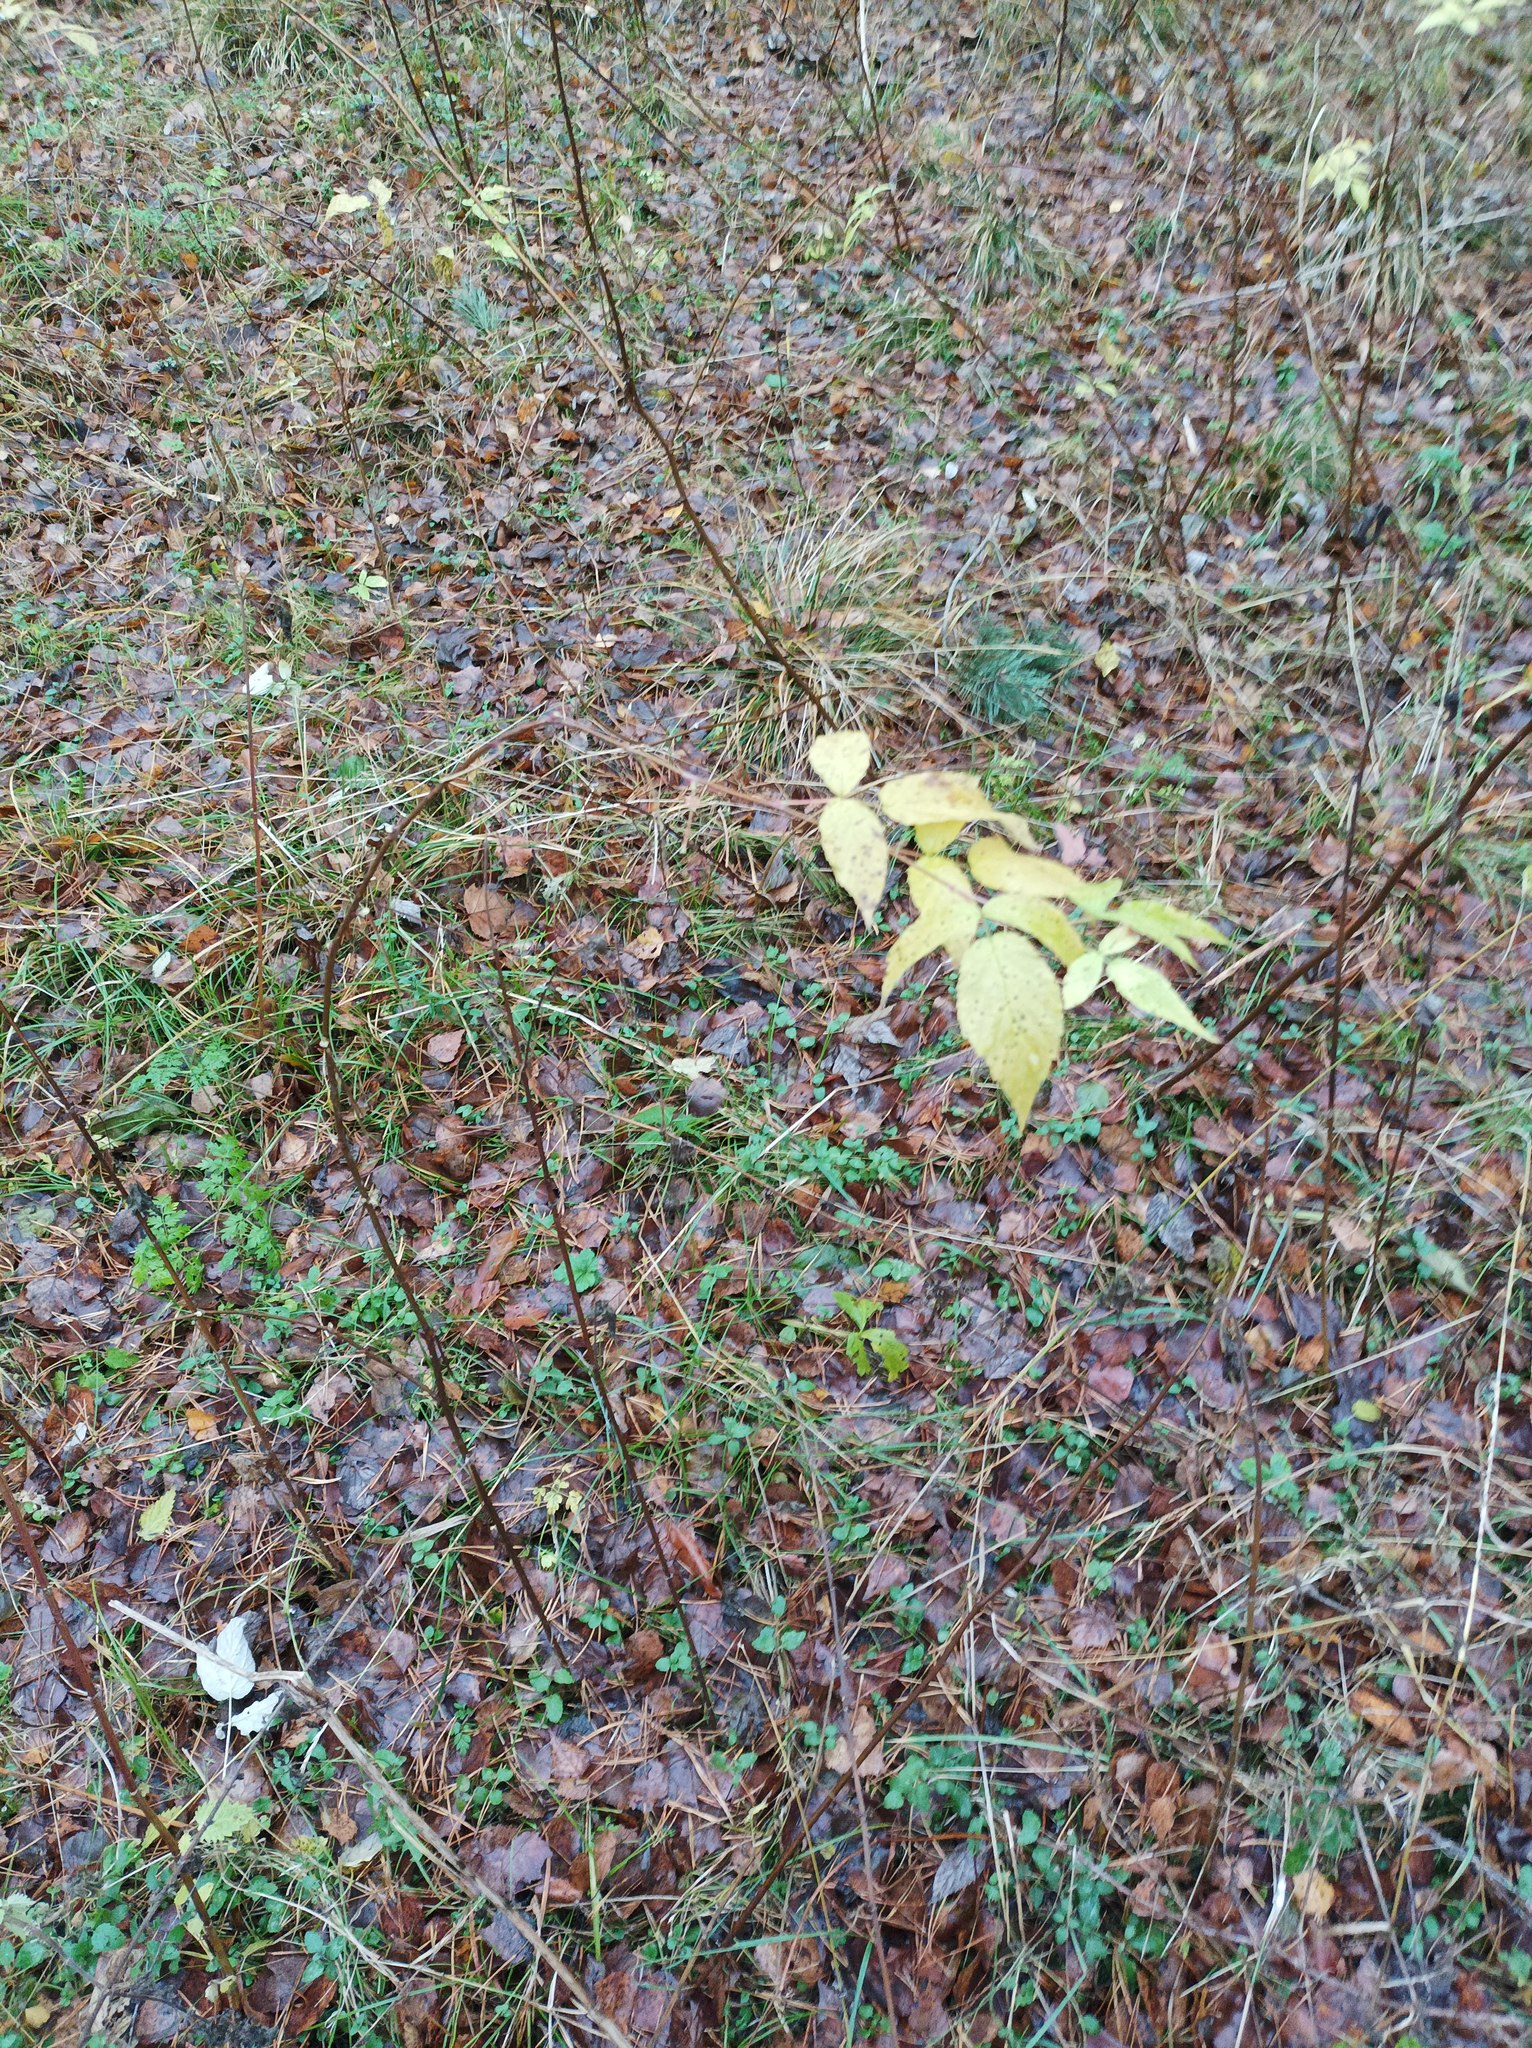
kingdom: Plantae
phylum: Tracheophyta
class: Magnoliopsida
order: Rosales
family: Rosaceae
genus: Rubus
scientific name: Rubus idaeus
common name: Raspberry
